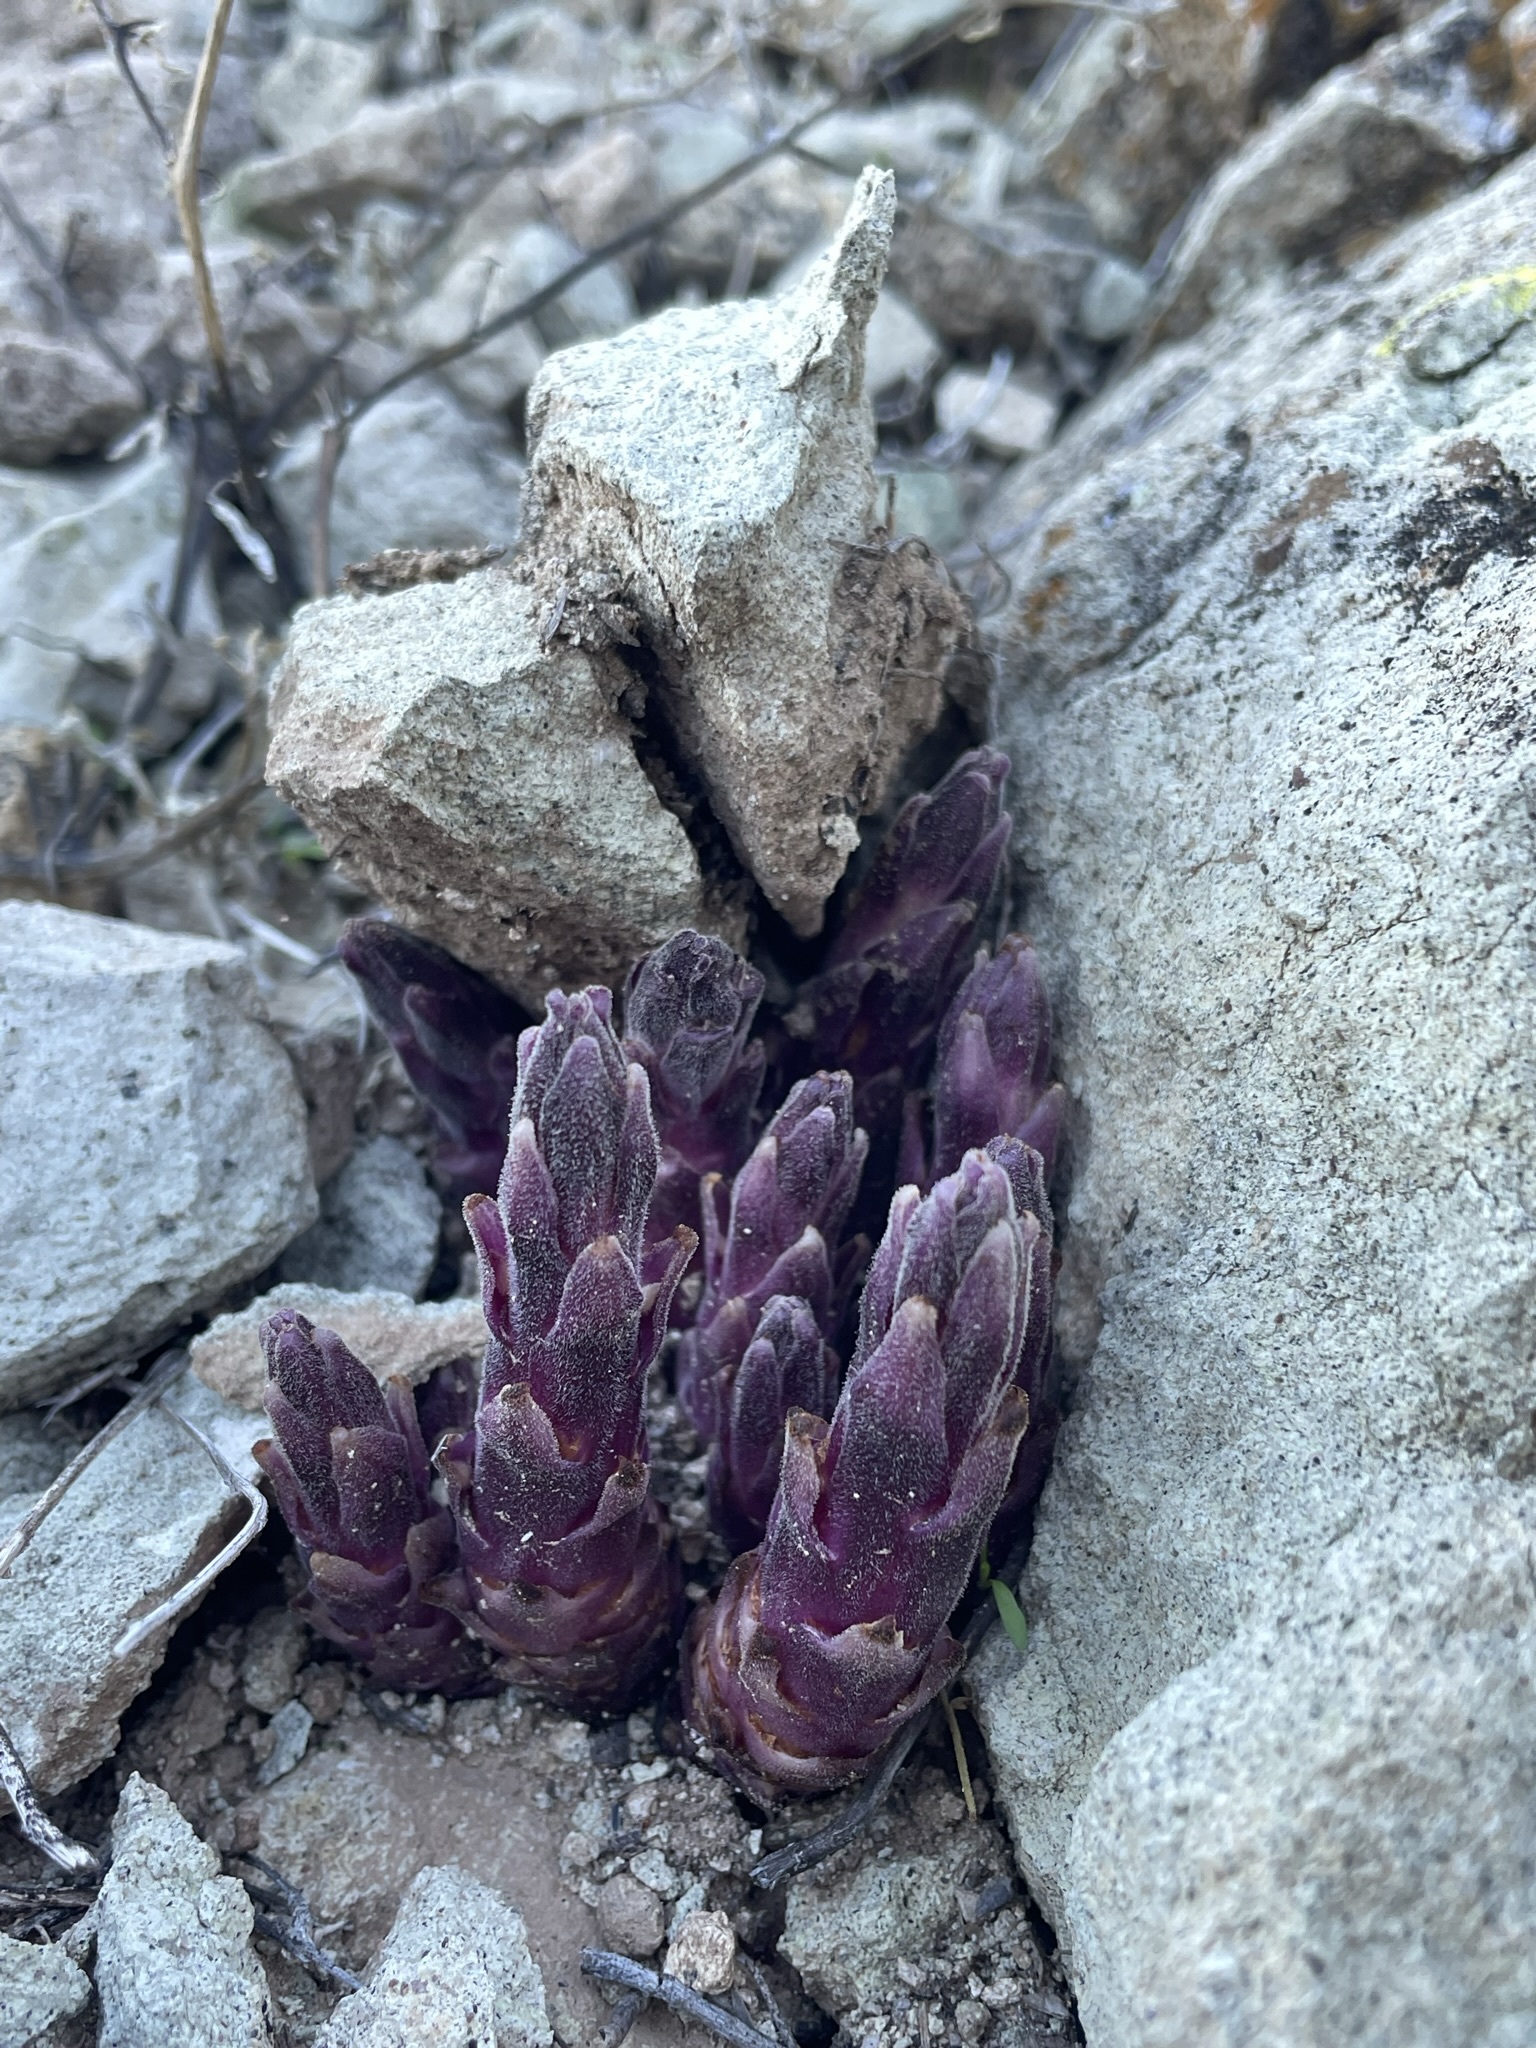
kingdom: Plantae
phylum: Tracheophyta
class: Magnoliopsida
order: Lamiales
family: Orobanchaceae
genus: Aphyllon
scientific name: Aphyllon cooperi
